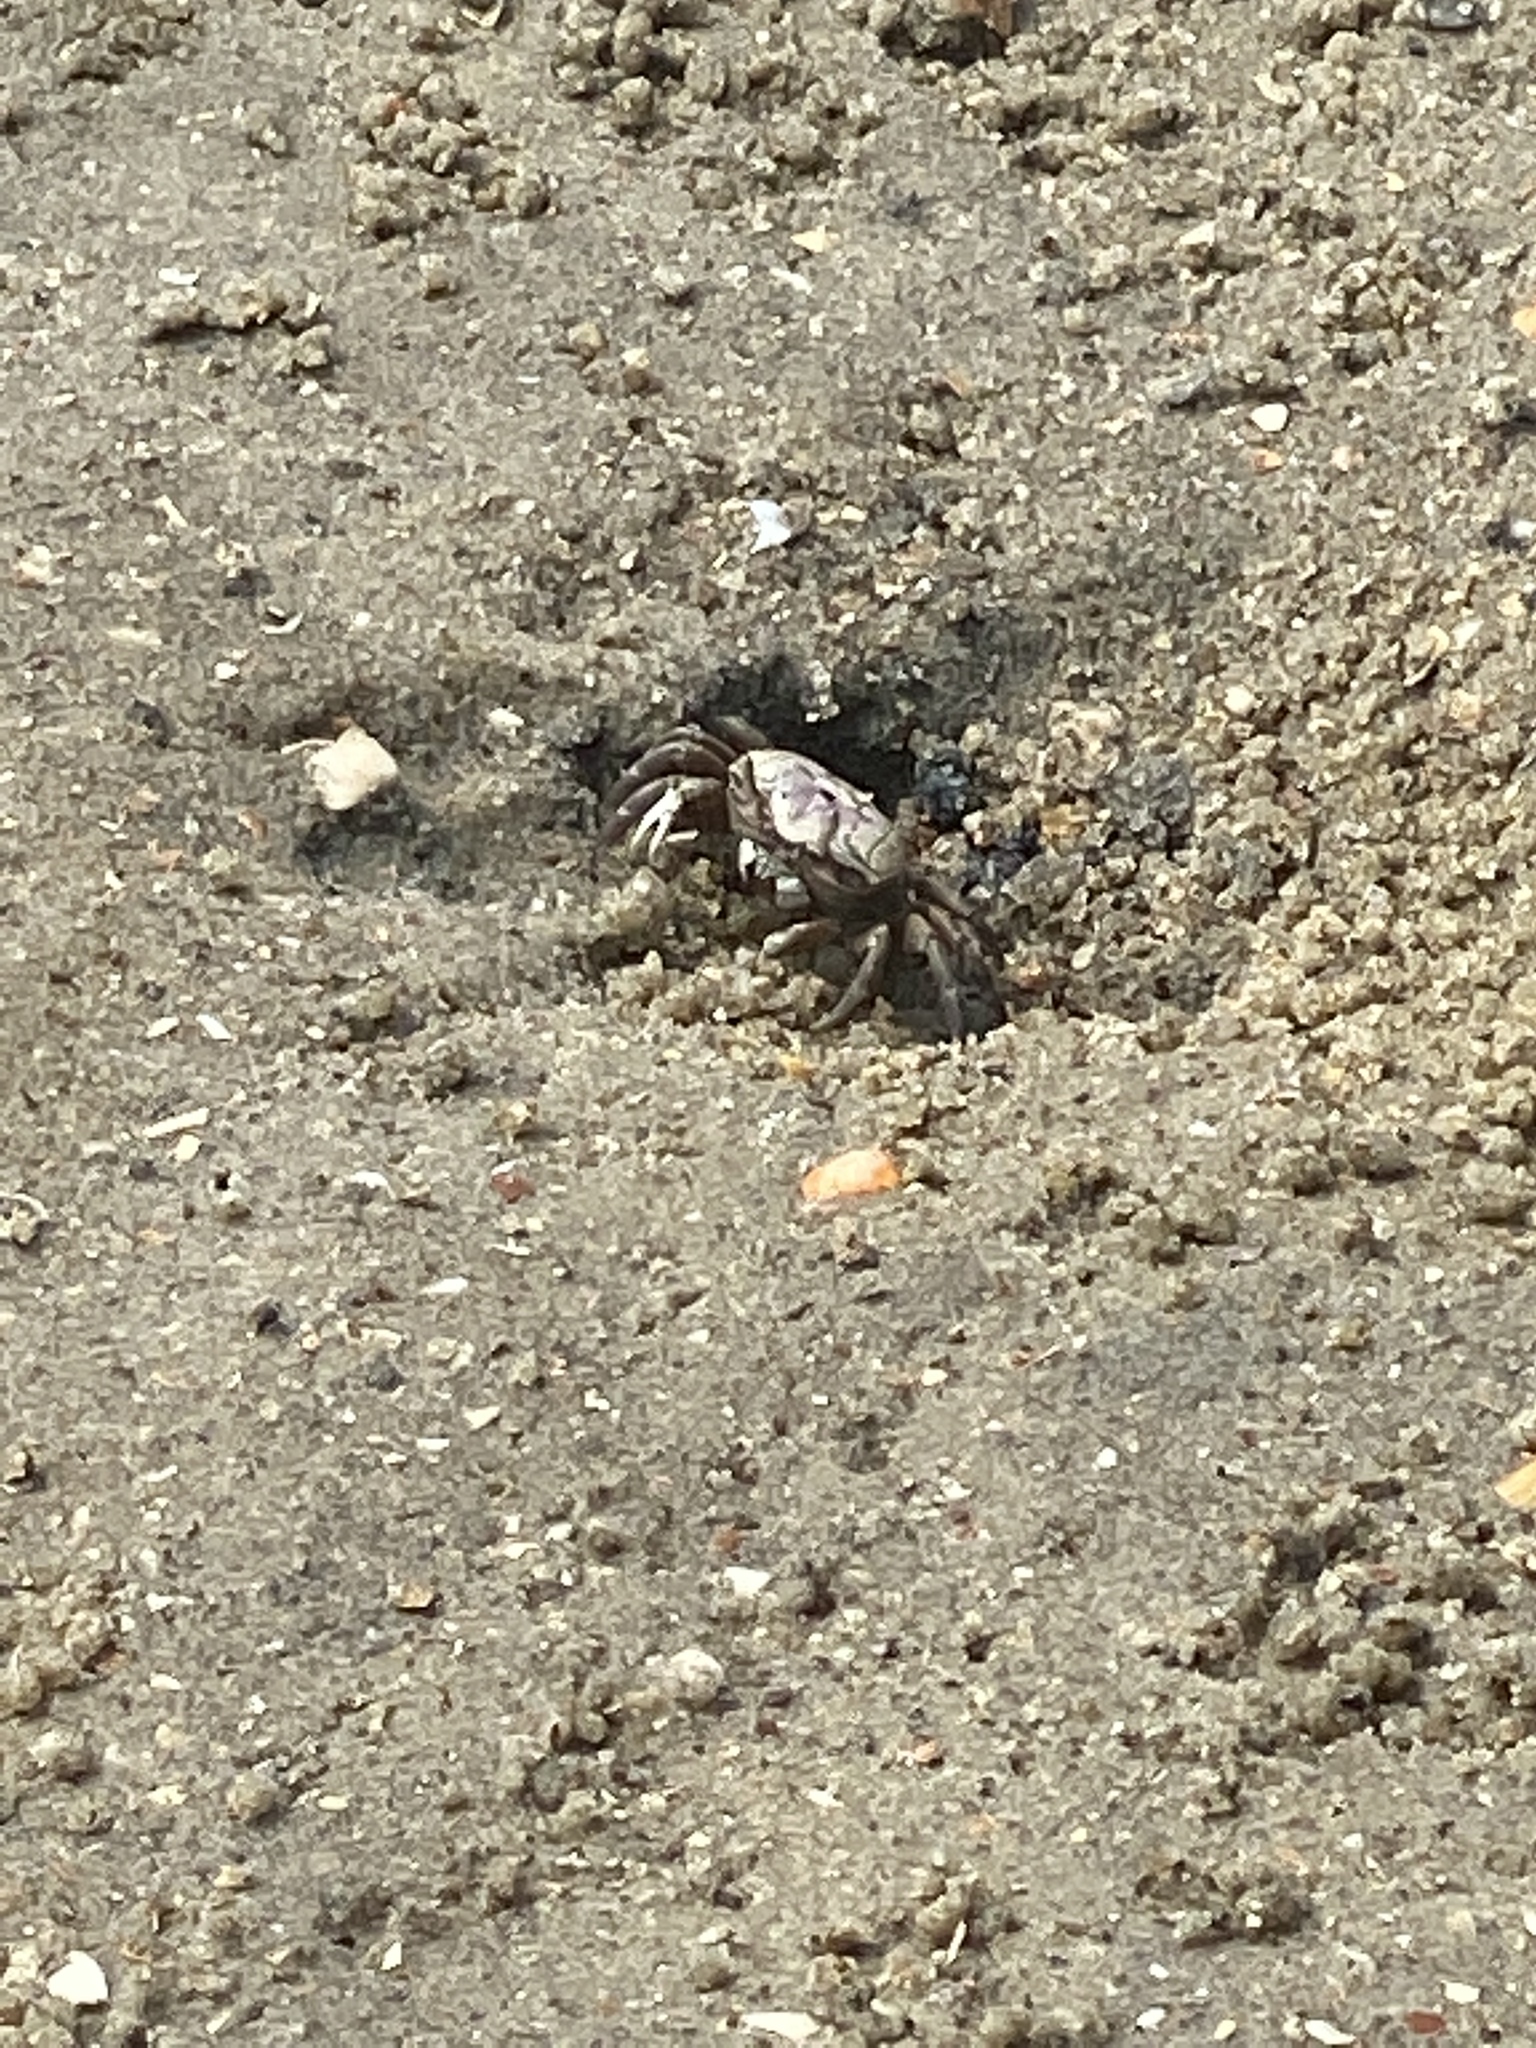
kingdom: Animalia
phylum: Arthropoda
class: Malacostraca
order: Decapoda
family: Ocypodidae
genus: Leptuca
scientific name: Leptuca pugilator
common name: Atlantic sand fiddler crab
